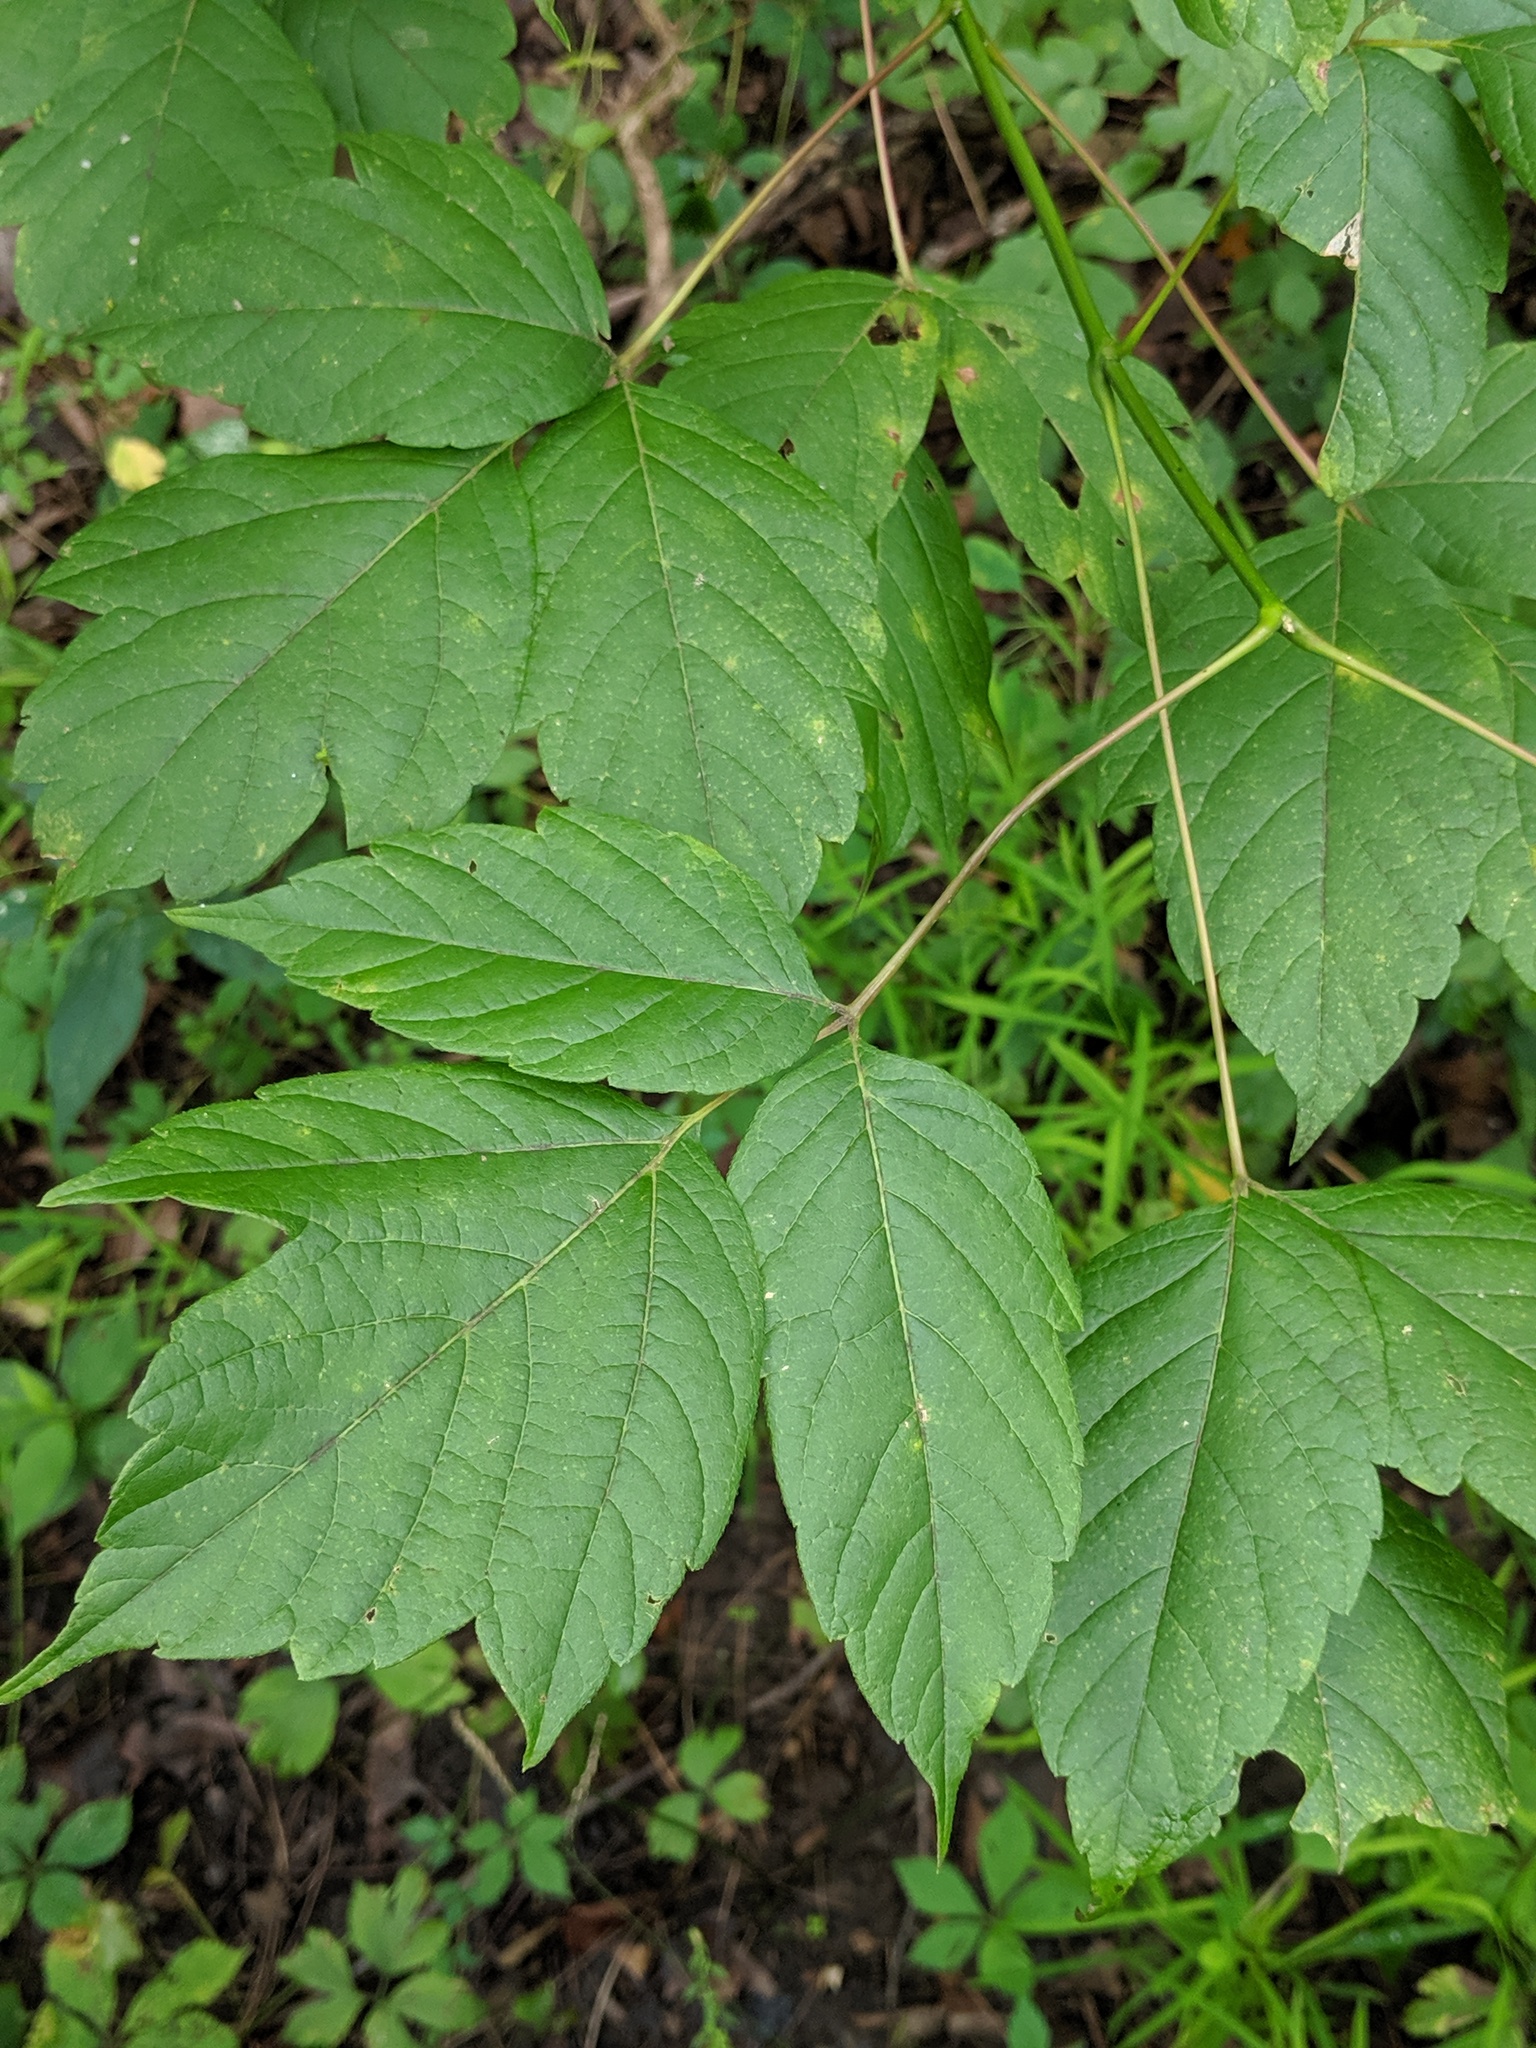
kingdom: Plantae
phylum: Tracheophyta
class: Magnoliopsida
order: Sapindales
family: Sapindaceae
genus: Acer
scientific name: Acer negundo
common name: Ashleaf maple
